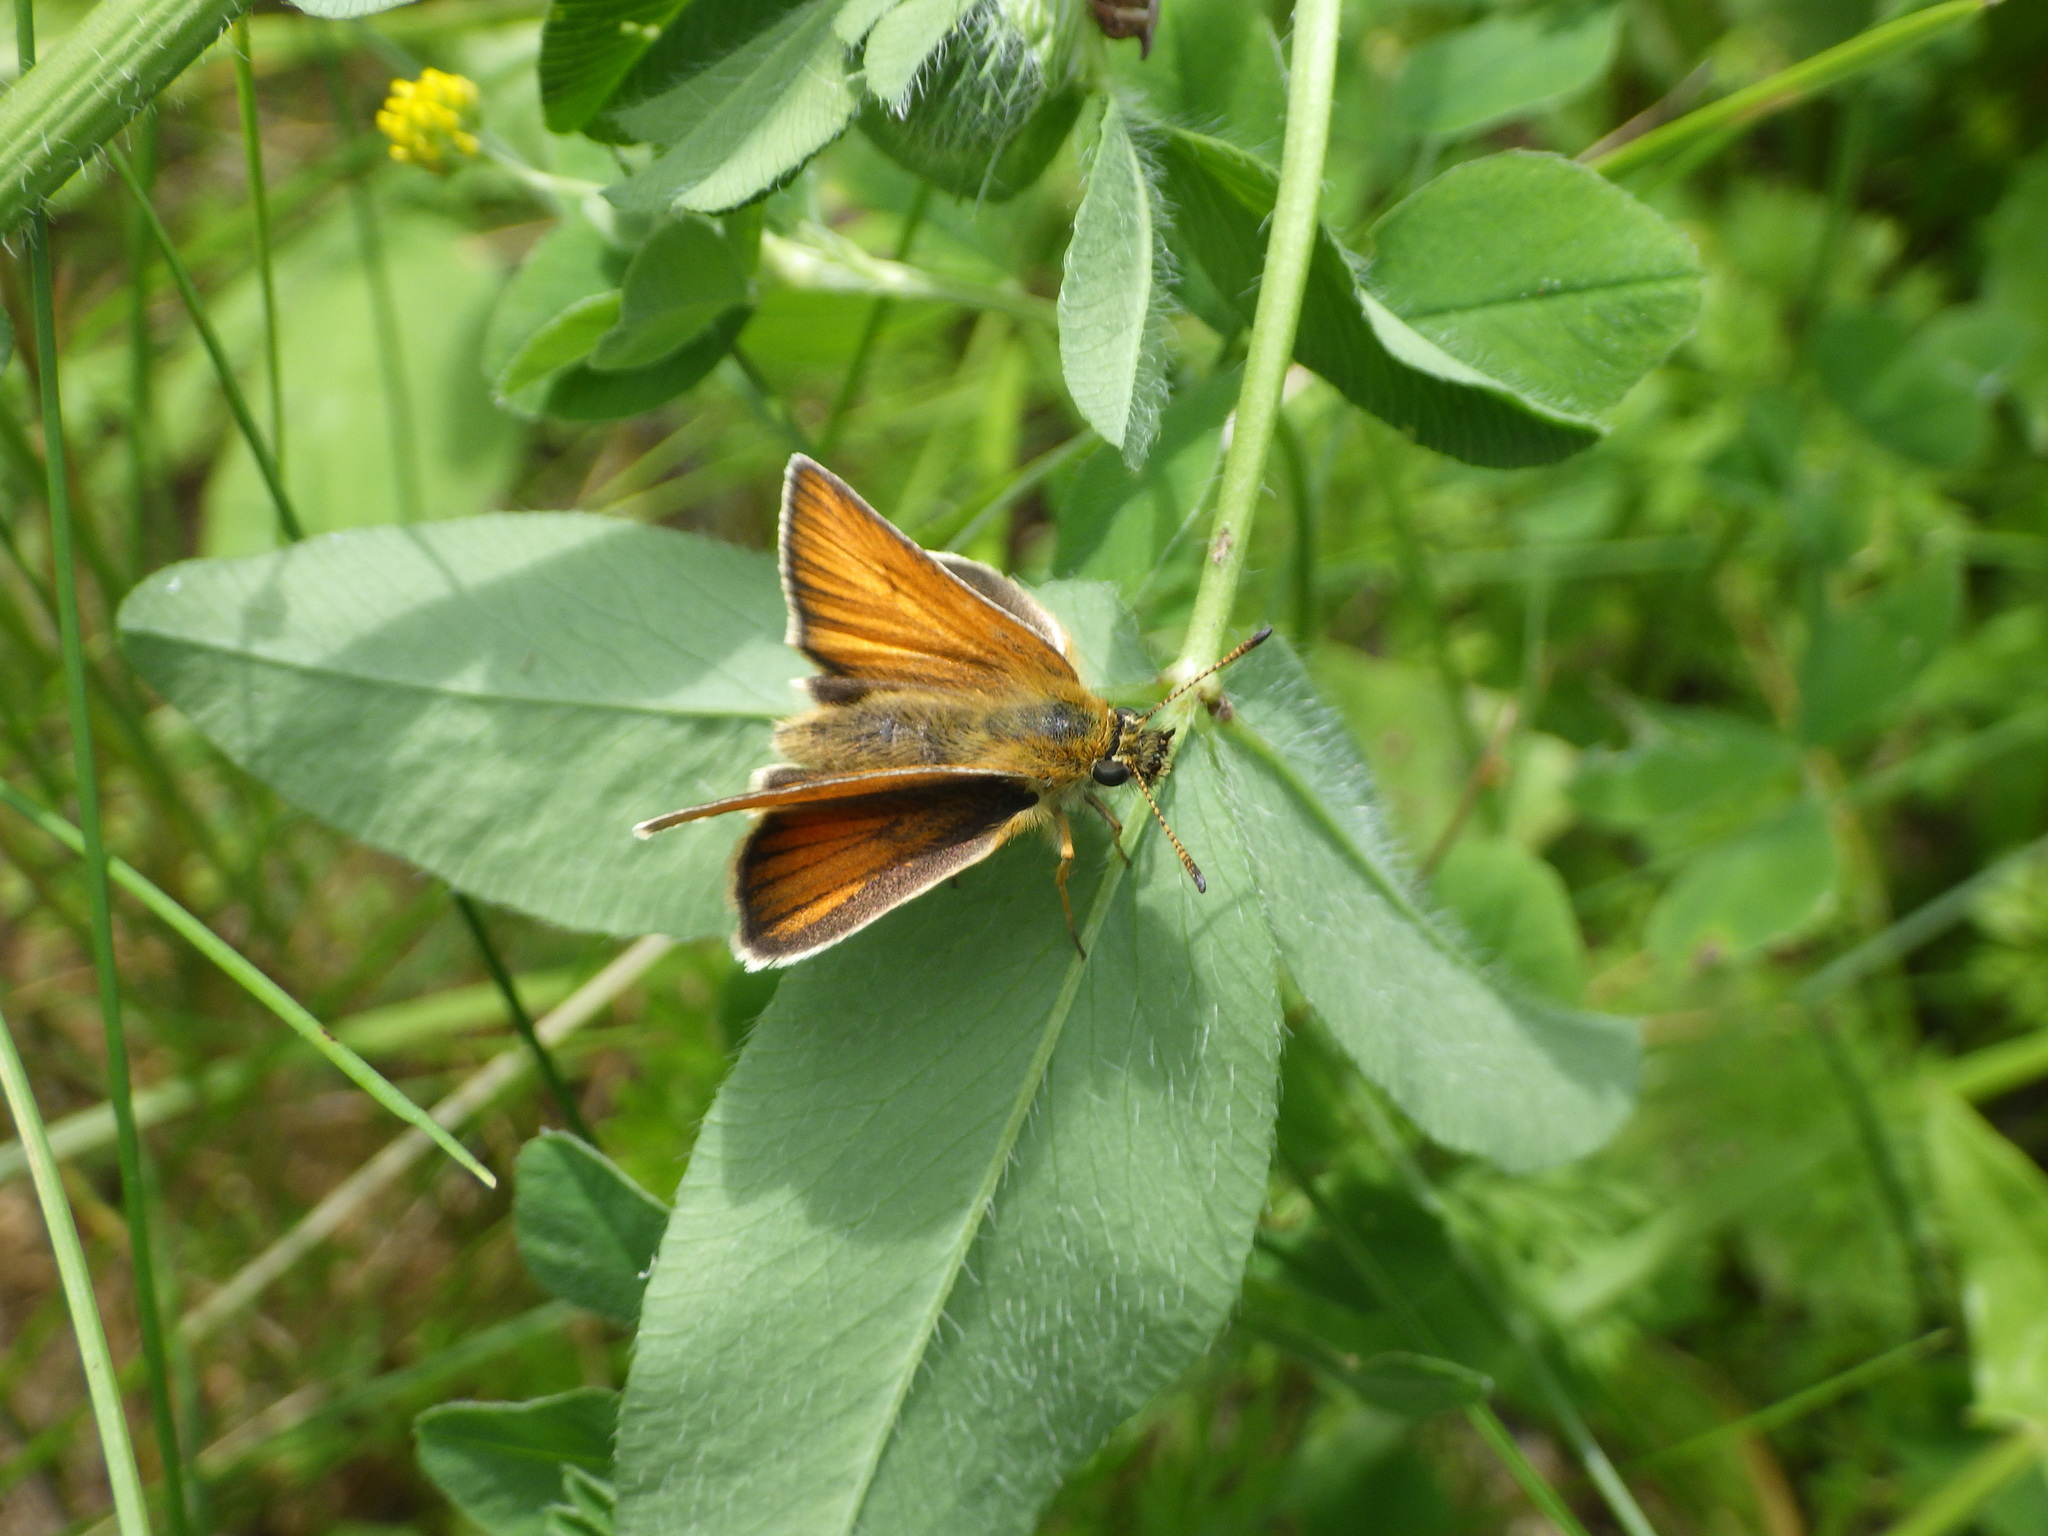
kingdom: Animalia
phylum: Arthropoda
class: Insecta
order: Lepidoptera
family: Hesperiidae
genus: Thymelicus
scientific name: Thymelicus lineola
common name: Essex skipper
